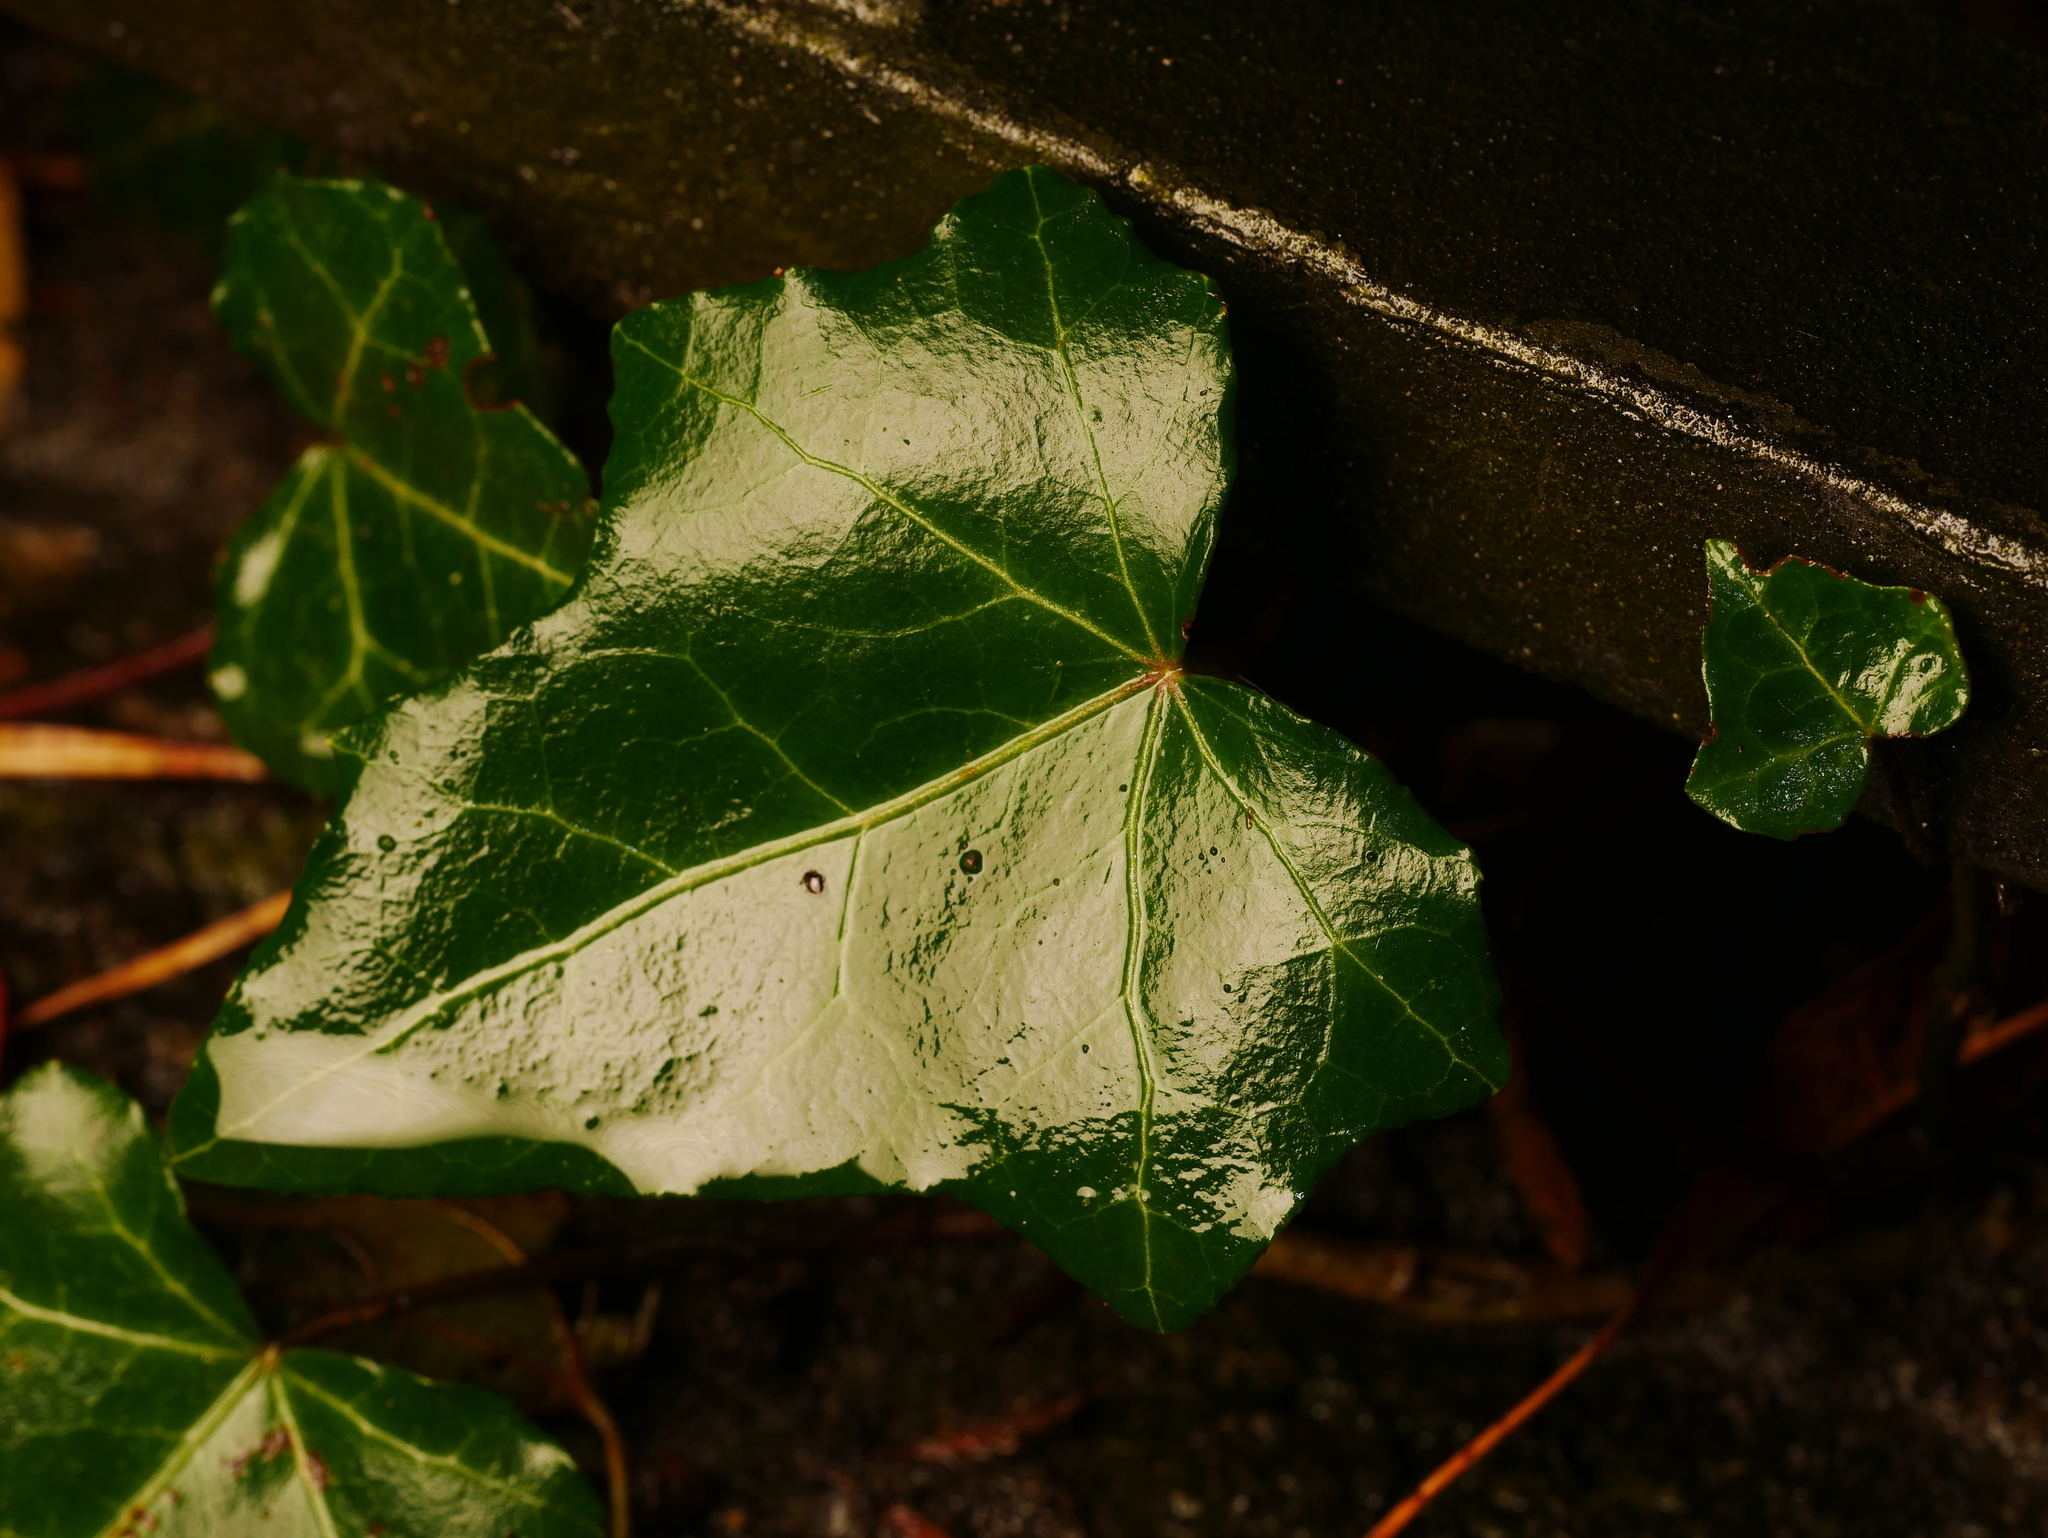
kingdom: Plantae
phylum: Tracheophyta
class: Magnoliopsida
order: Apiales
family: Araliaceae
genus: Hedera
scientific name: Hedera helix
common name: Ivy
